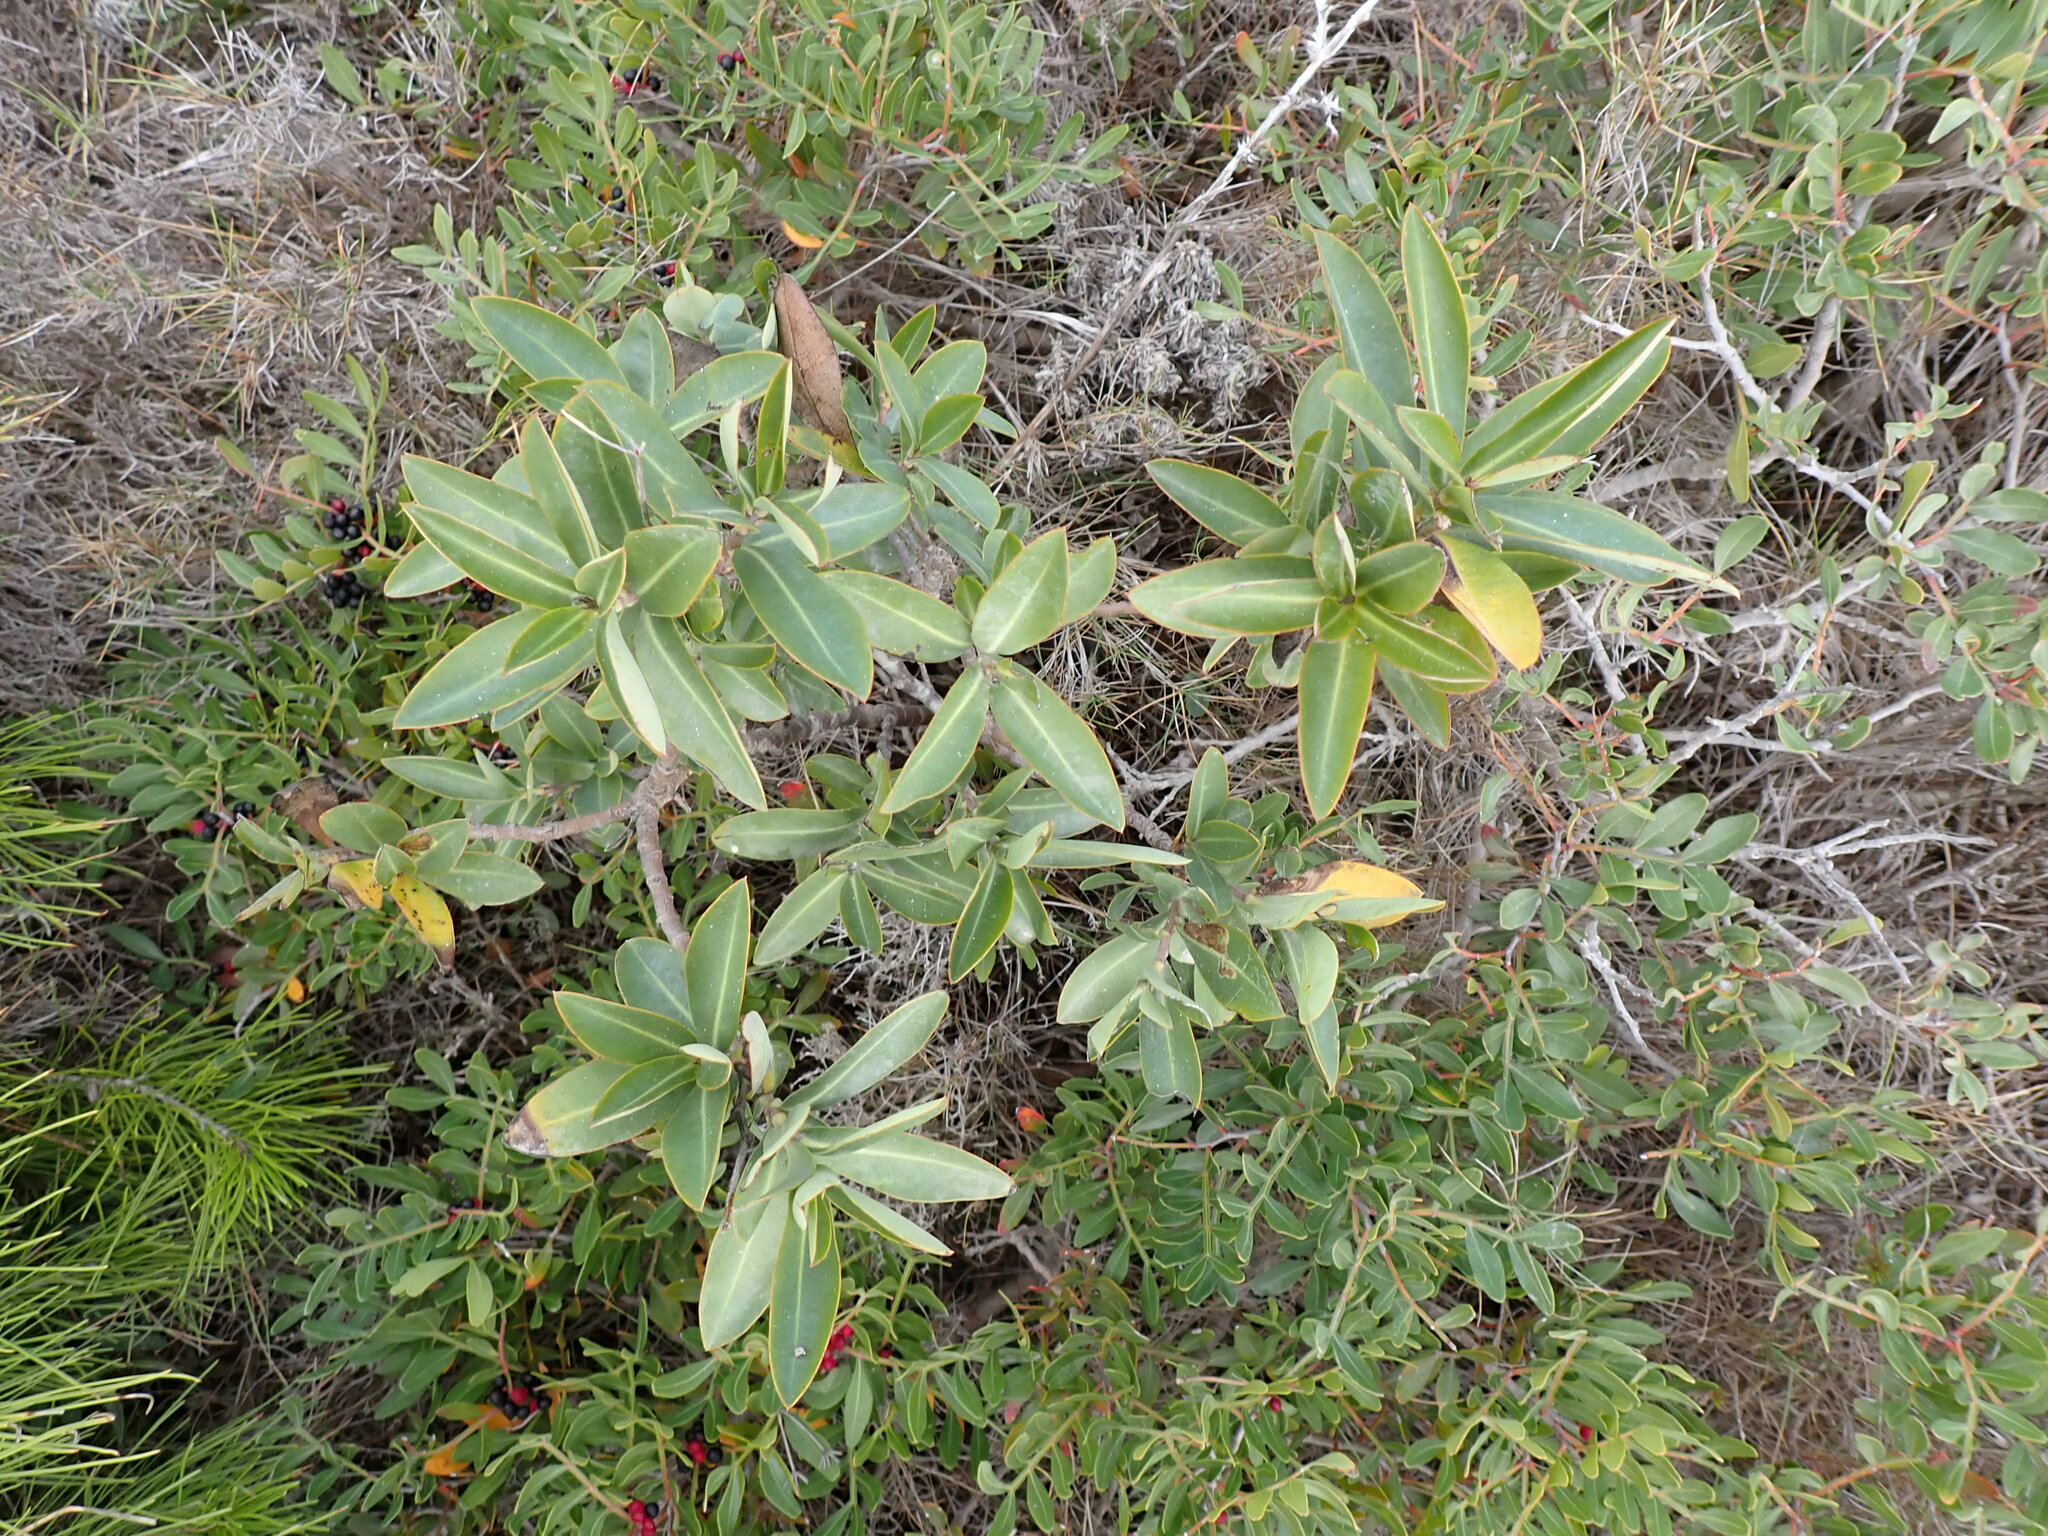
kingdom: Plantae
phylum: Tracheophyta
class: Magnoliopsida
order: Apiales
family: Apiaceae
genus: Bupleurum
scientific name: Bupleurum fruticosum
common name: Shrubby hare's-ear
